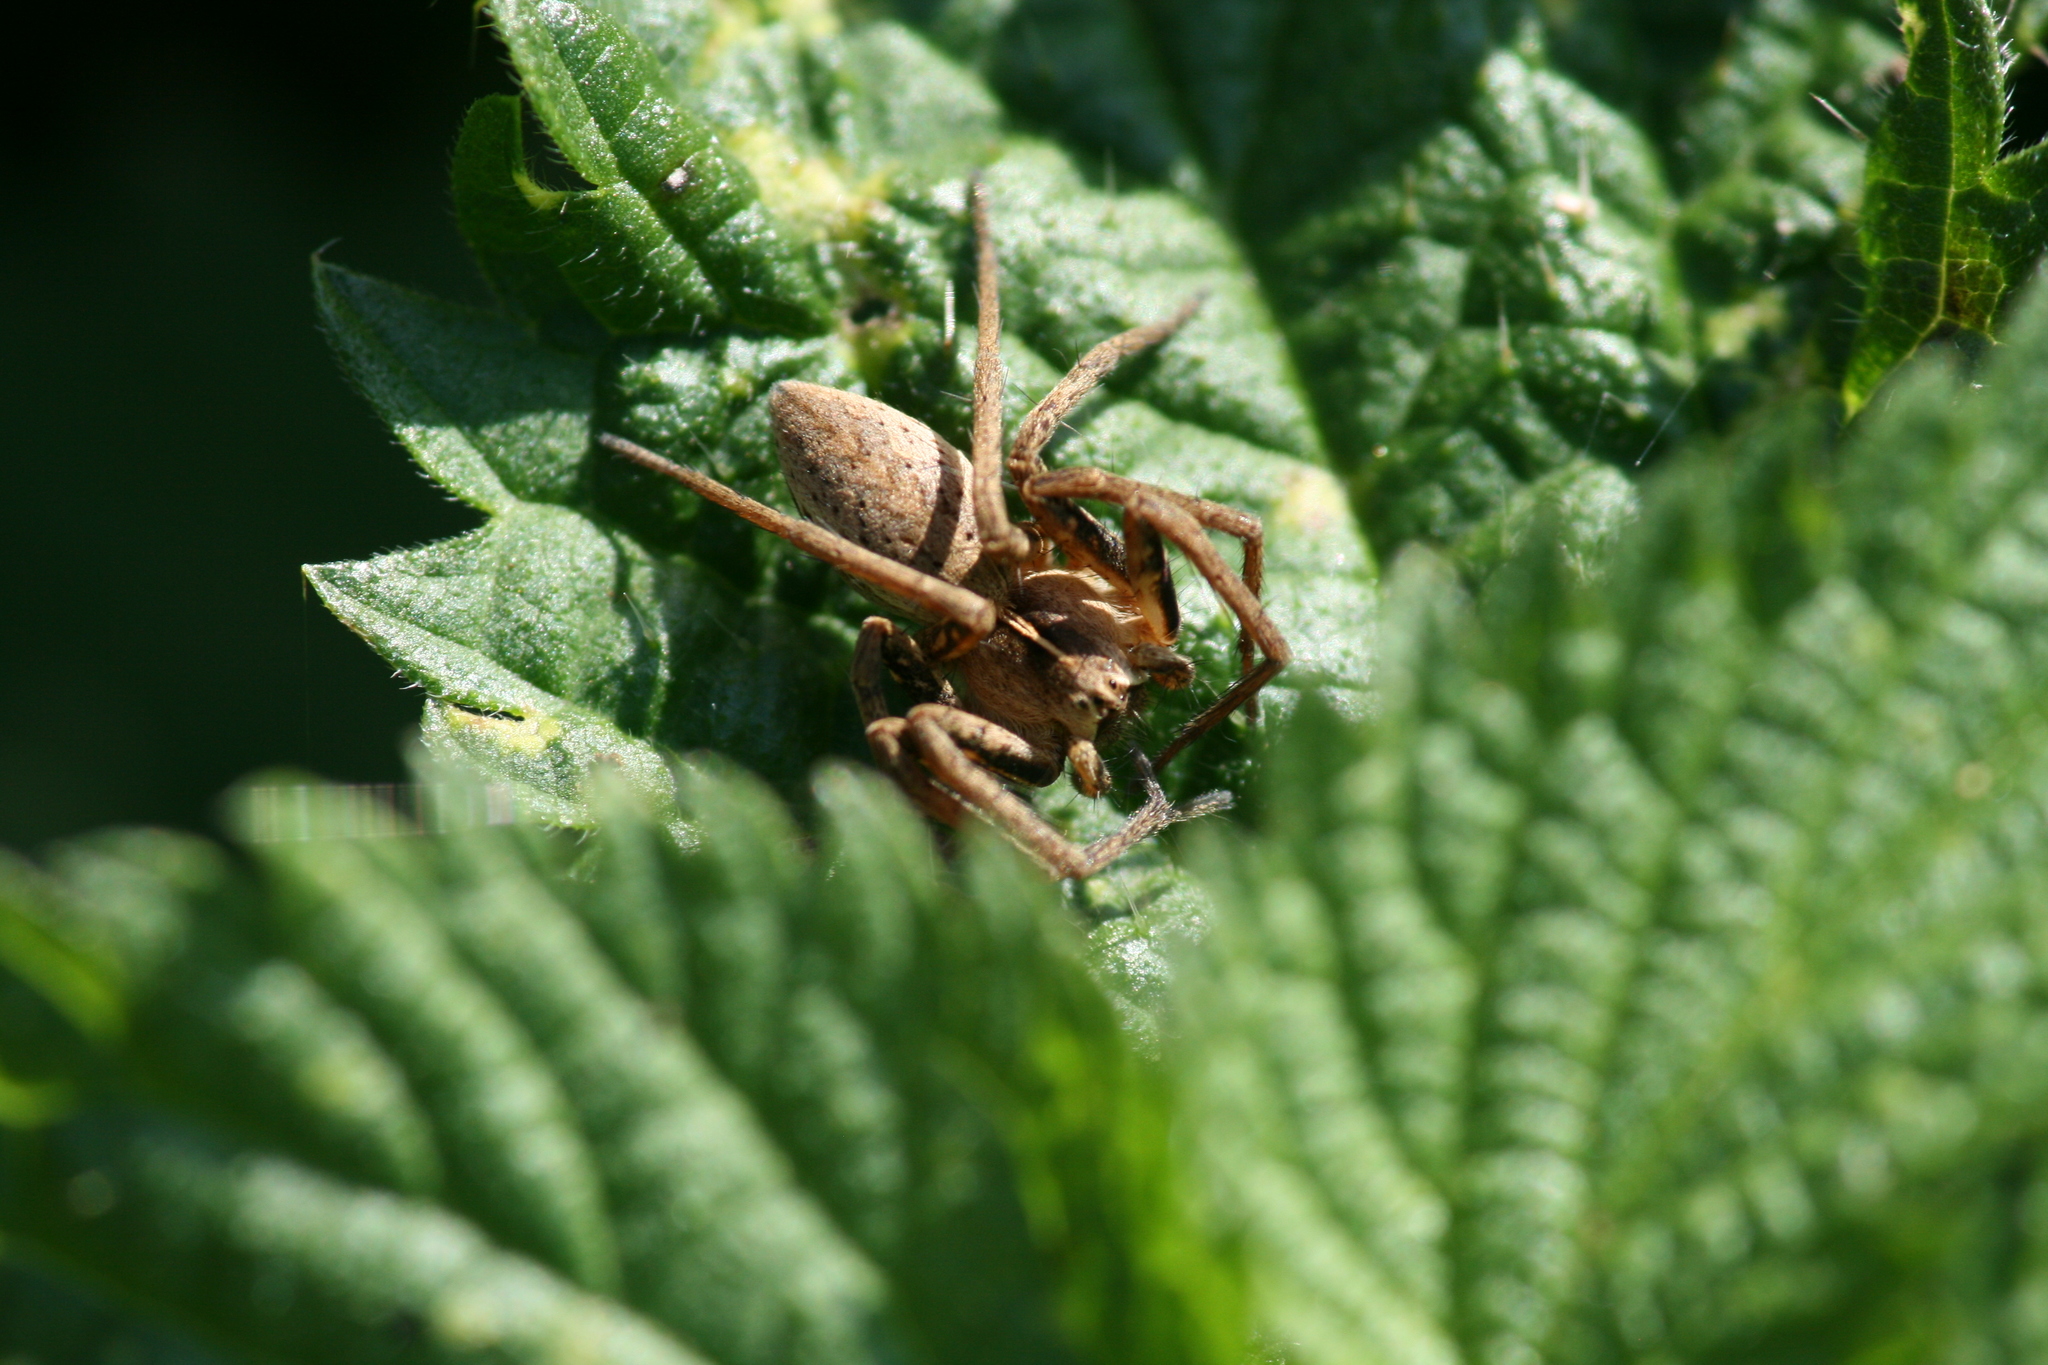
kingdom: Animalia
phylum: Arthropoda
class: Arachnida
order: Araneae
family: Pisauridae
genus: Pisaura
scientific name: Pisaura mirabilis
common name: Tent spider
